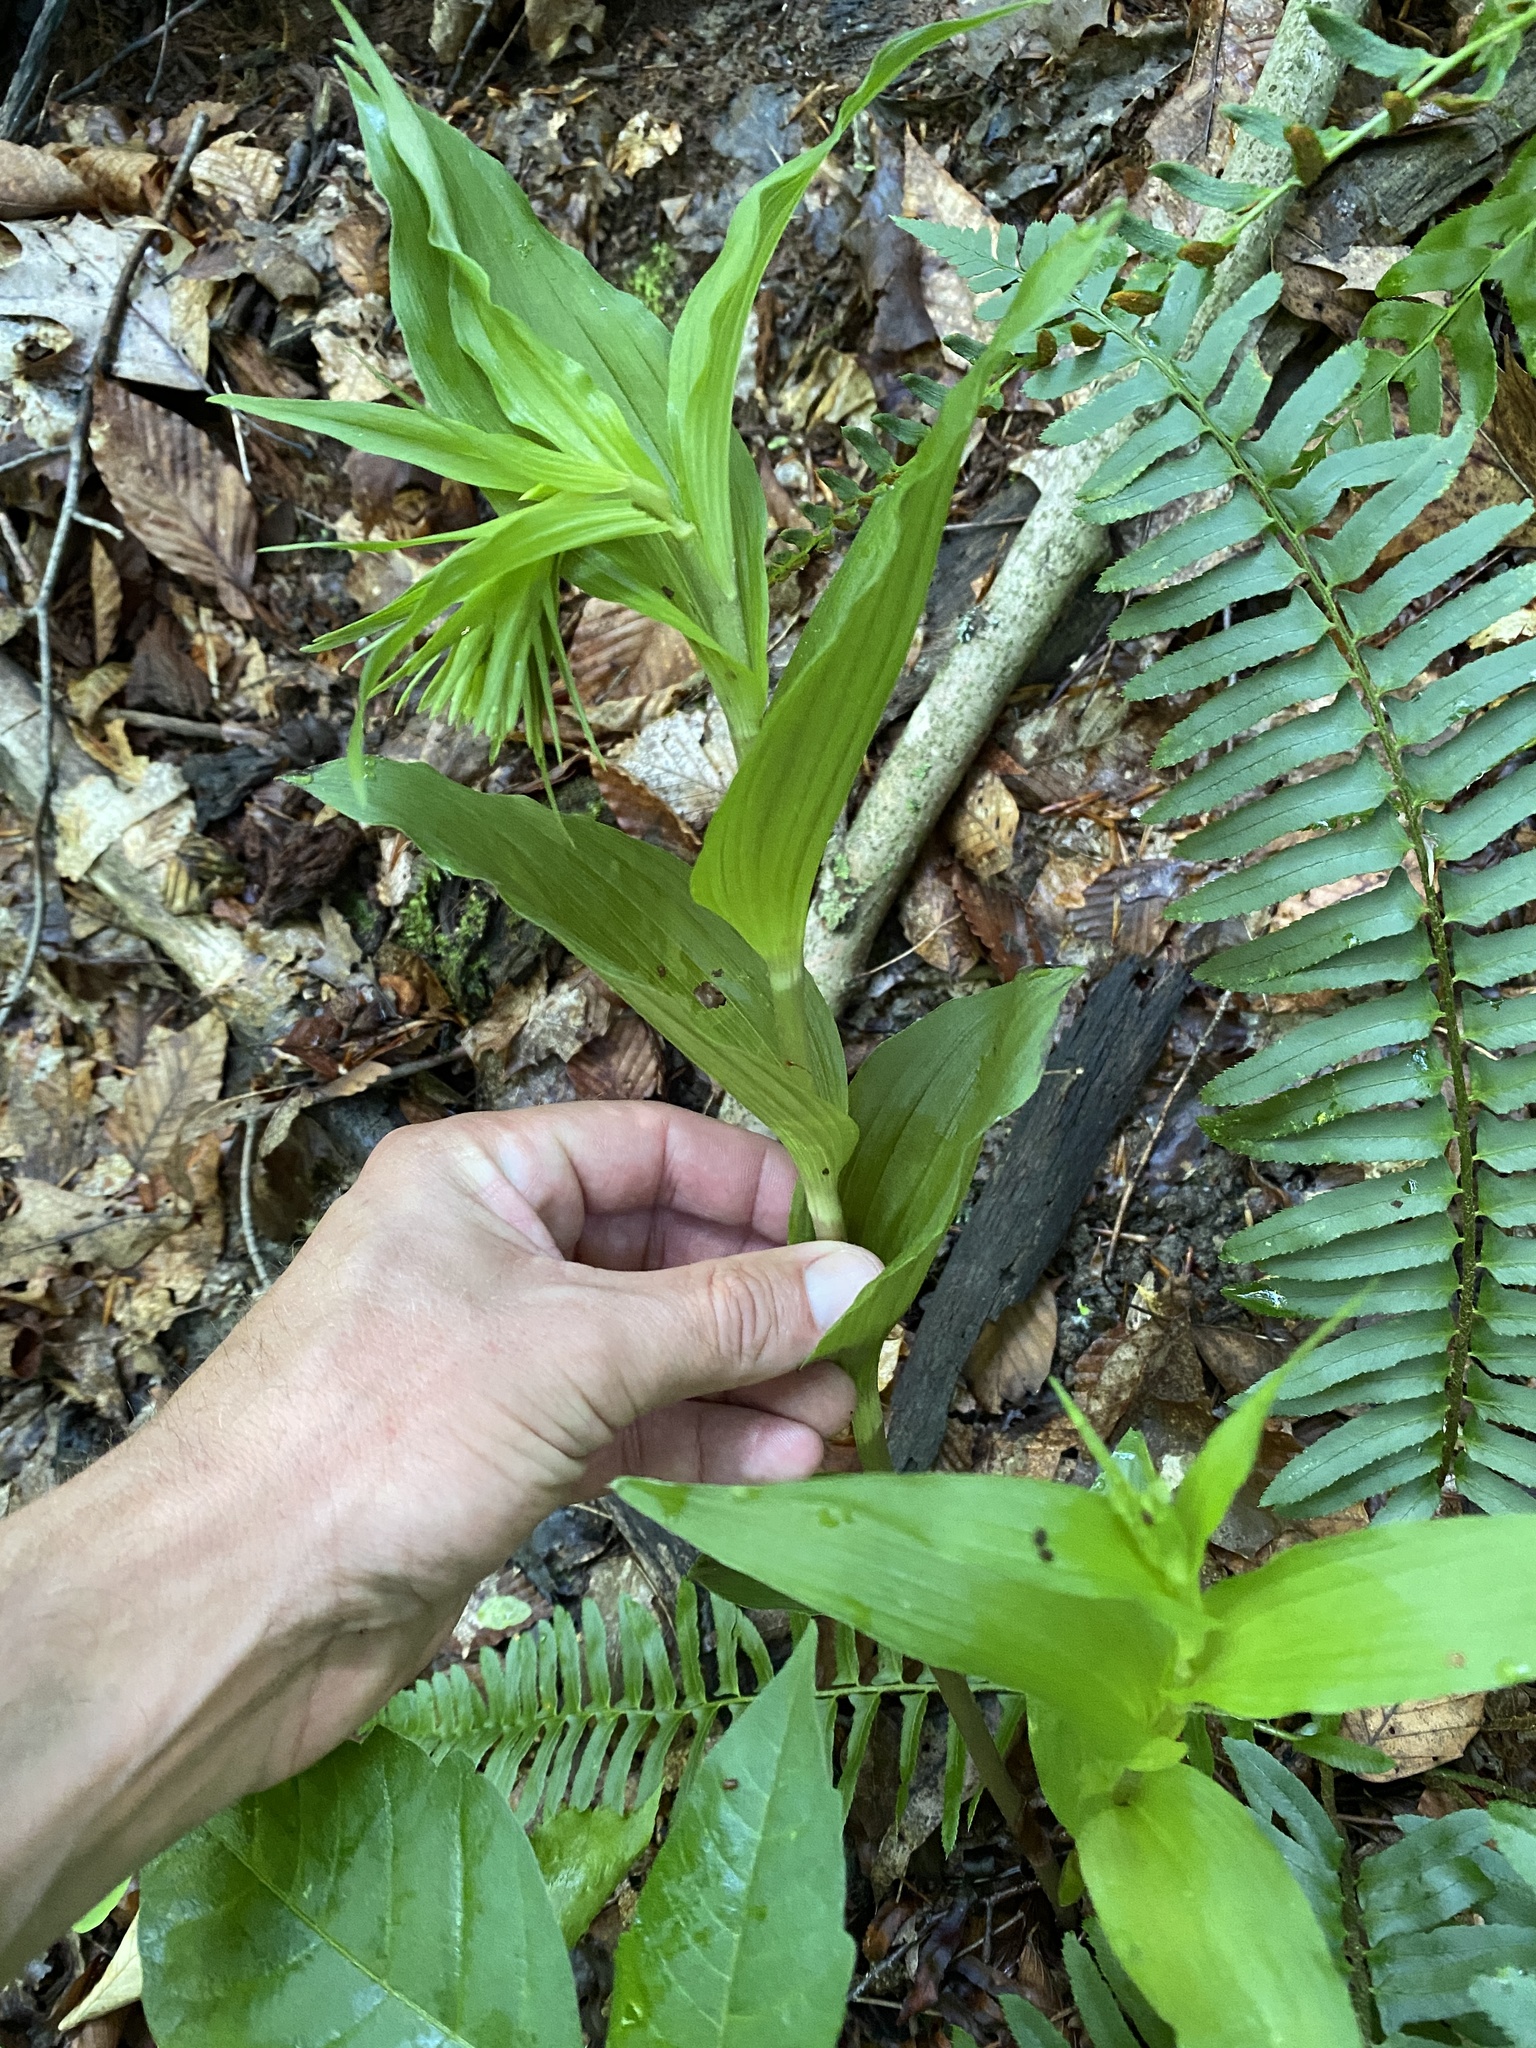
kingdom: Plantae
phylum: Tracheophyta
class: Liliopsida
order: Asparagales
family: Orchidaceae
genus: Epipactis
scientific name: Epipactis helleborine
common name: Broad-leaved helleborine
